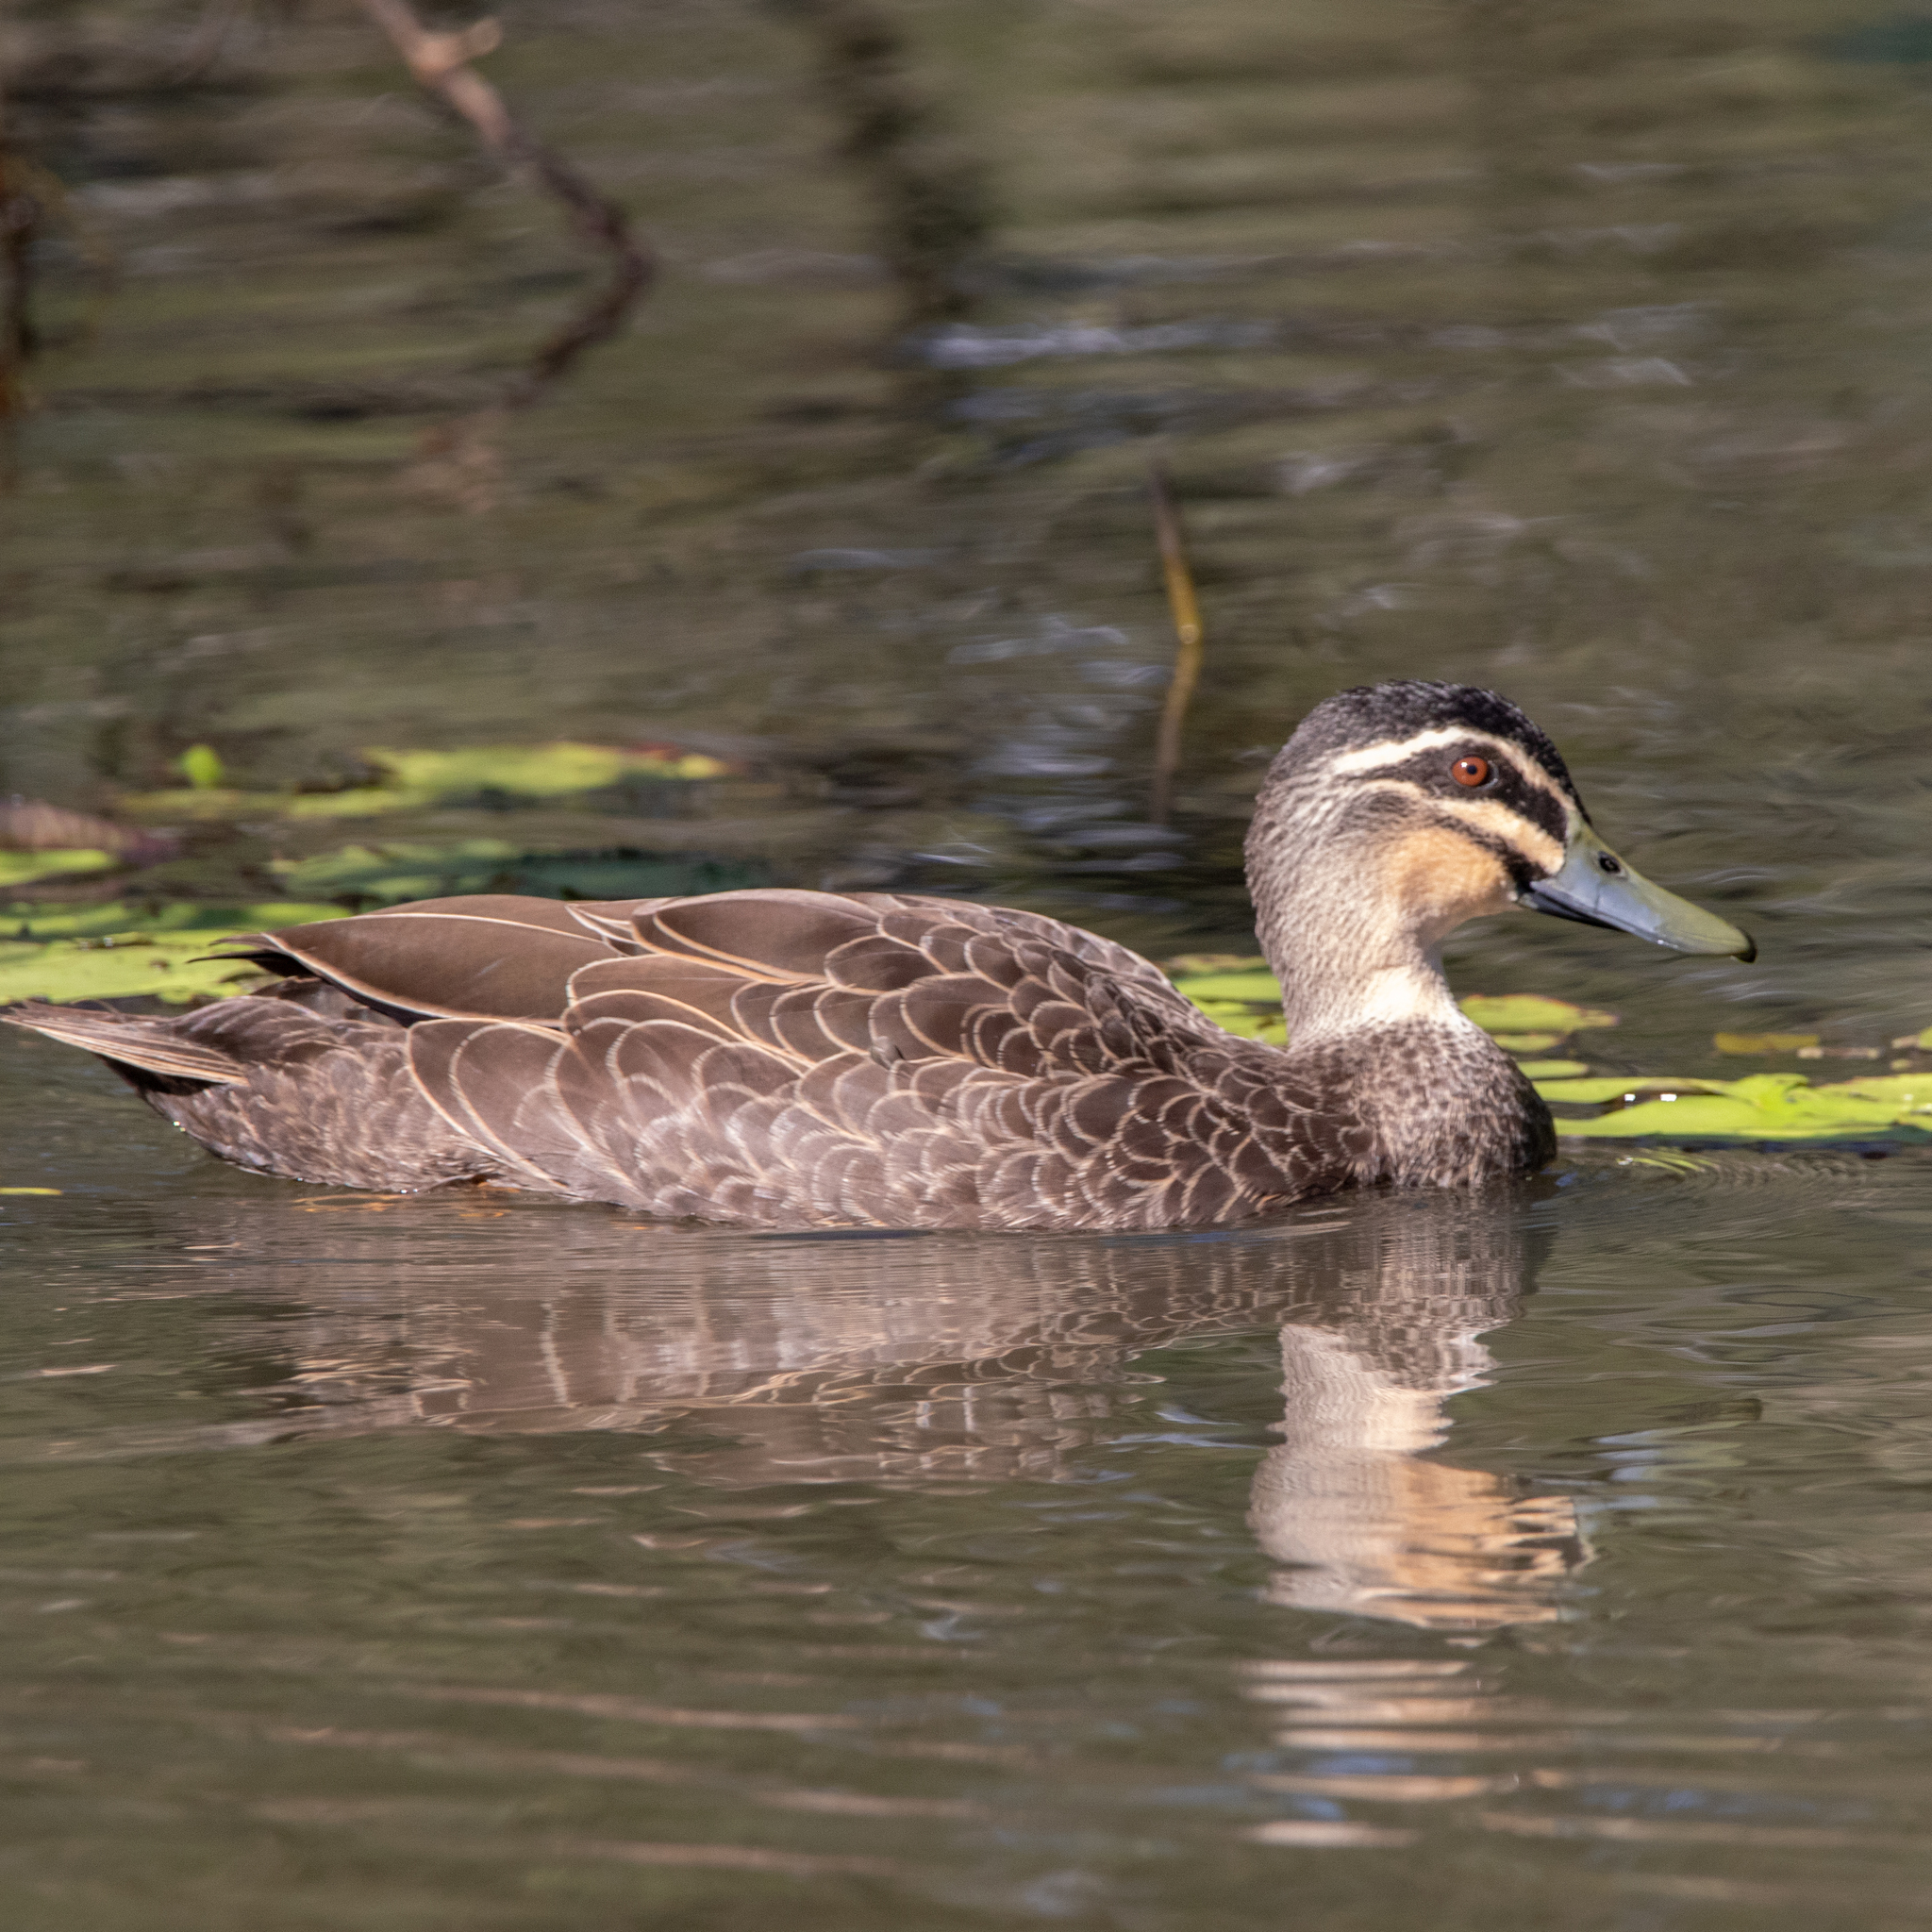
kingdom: Animalia
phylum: Chordata
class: Aves
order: Anseriformes
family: Anatidae
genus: Anas
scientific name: Anas
